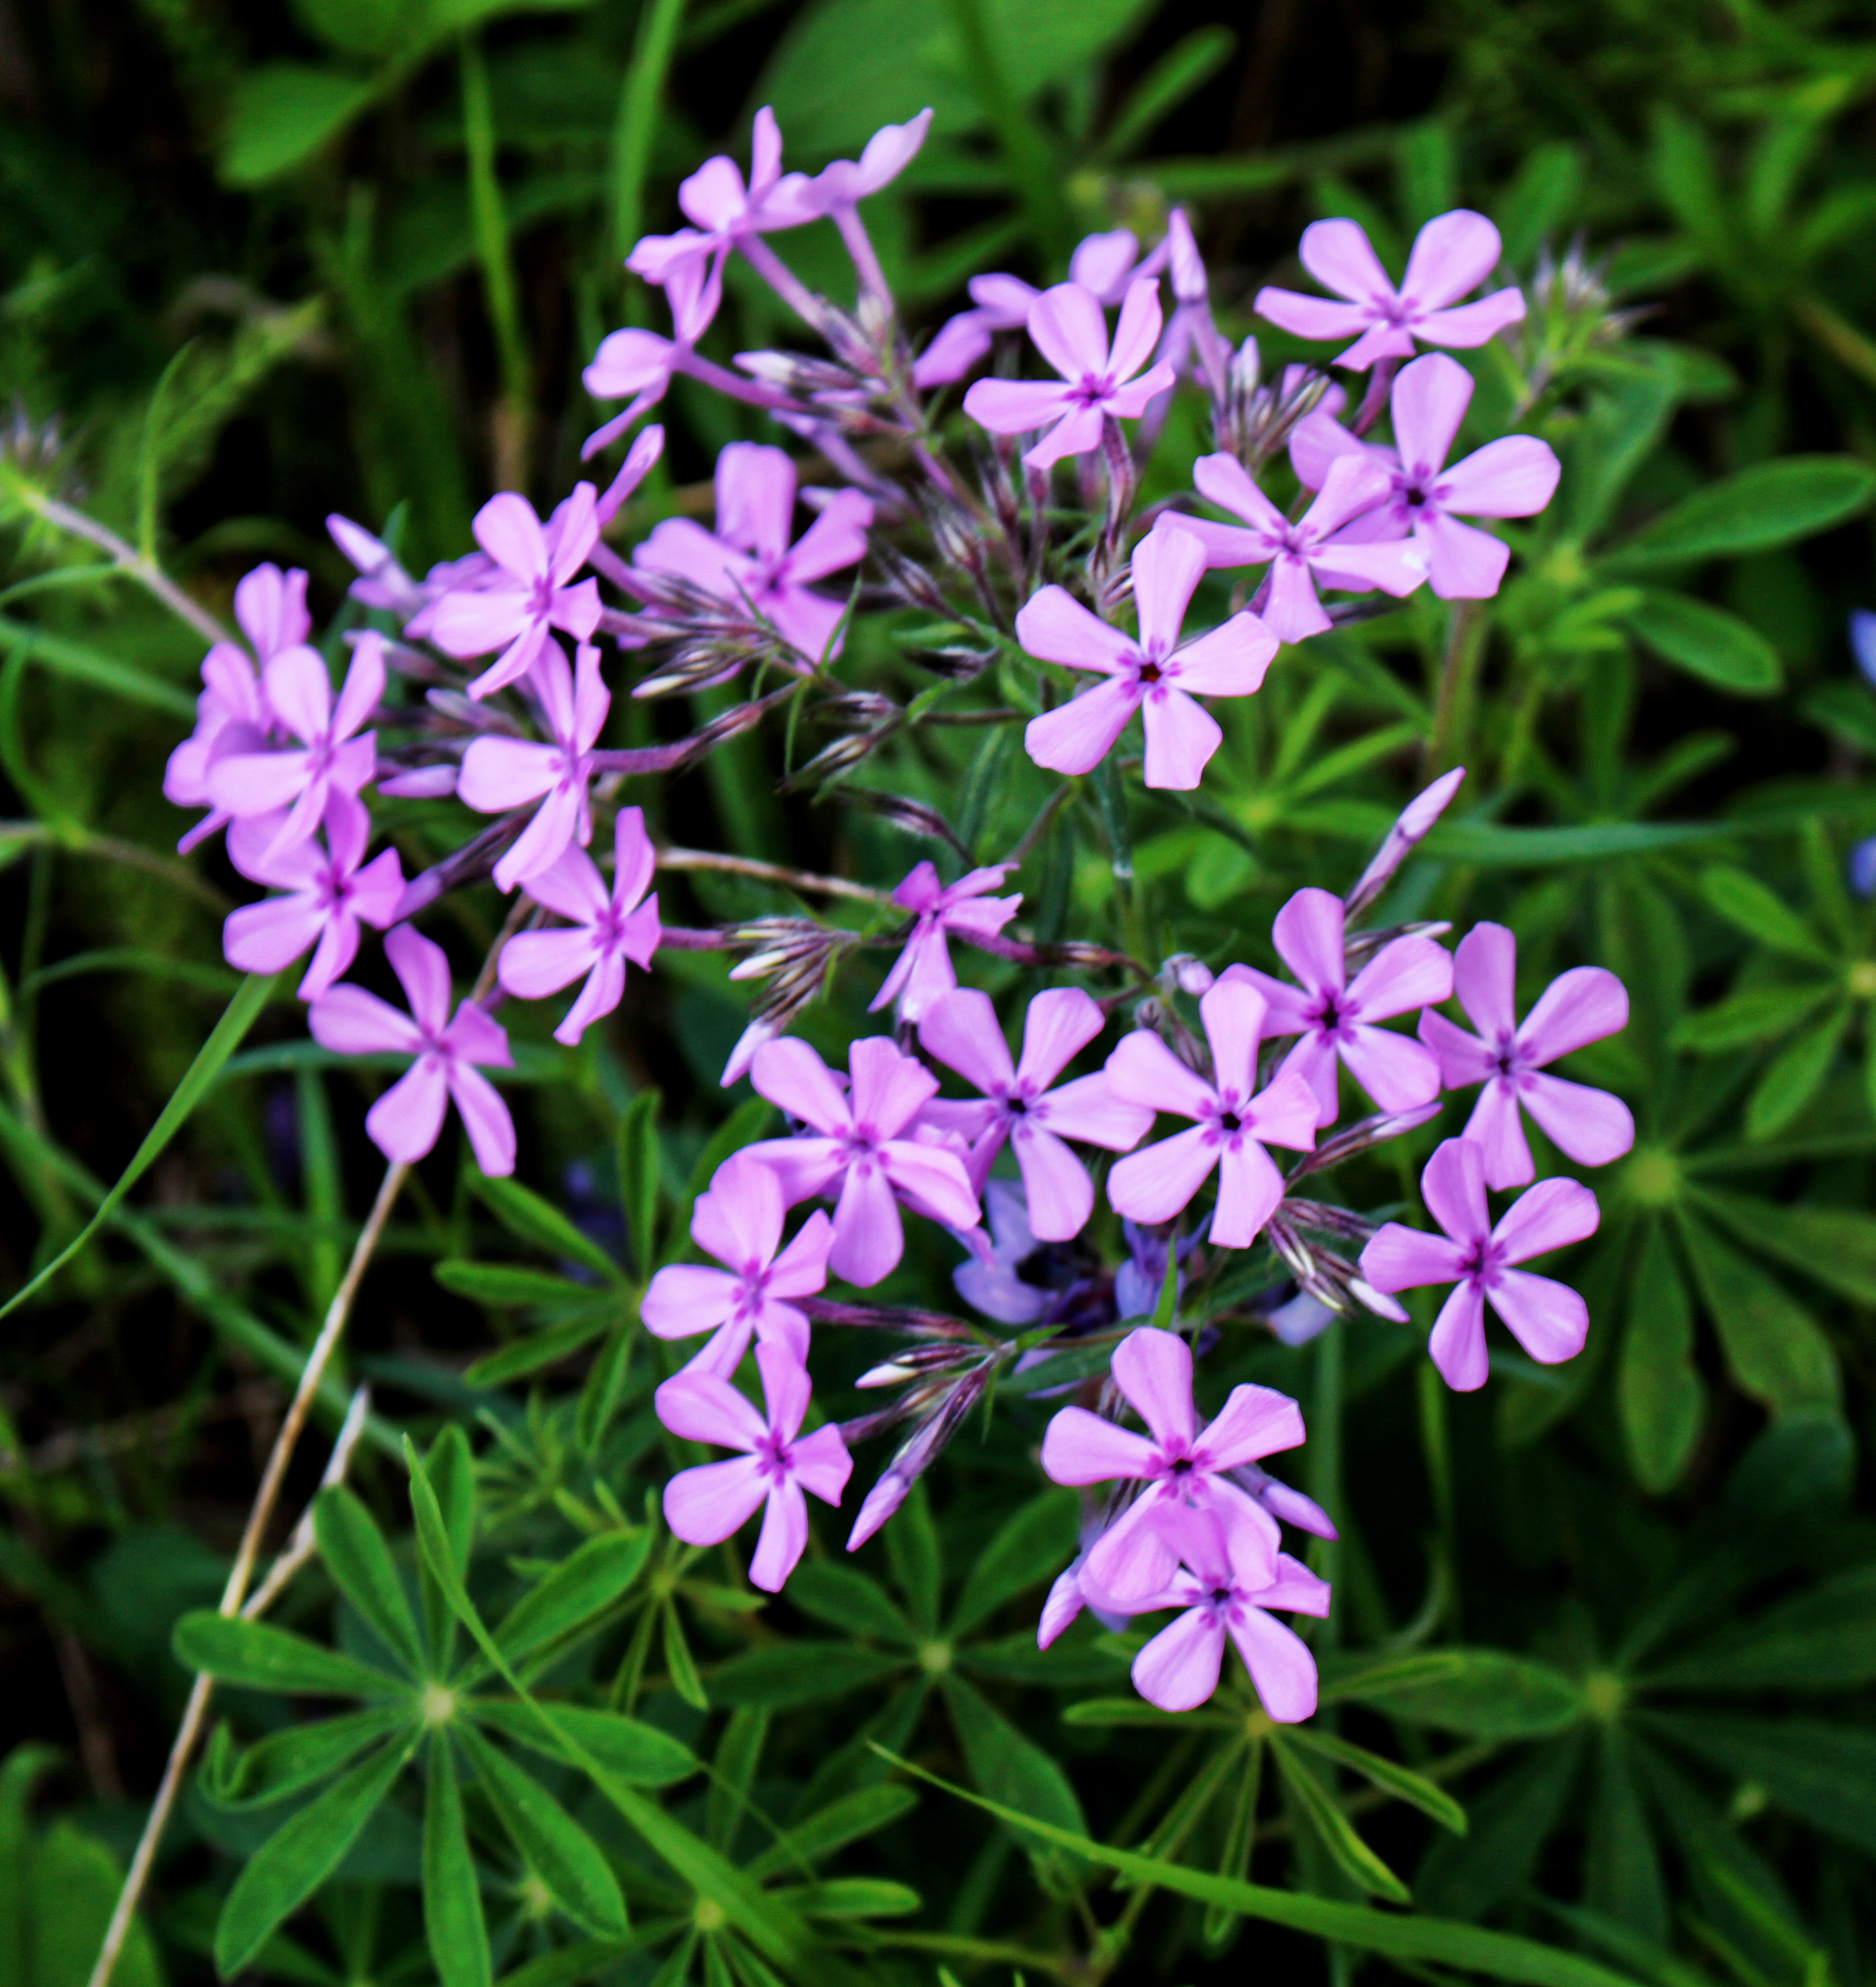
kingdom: Plantae
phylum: Tracheophyta
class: Magnoliopsida
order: Ericales
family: Polemoniaceae
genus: Phlox
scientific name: Phlox pilosa
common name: Prairie phlox
